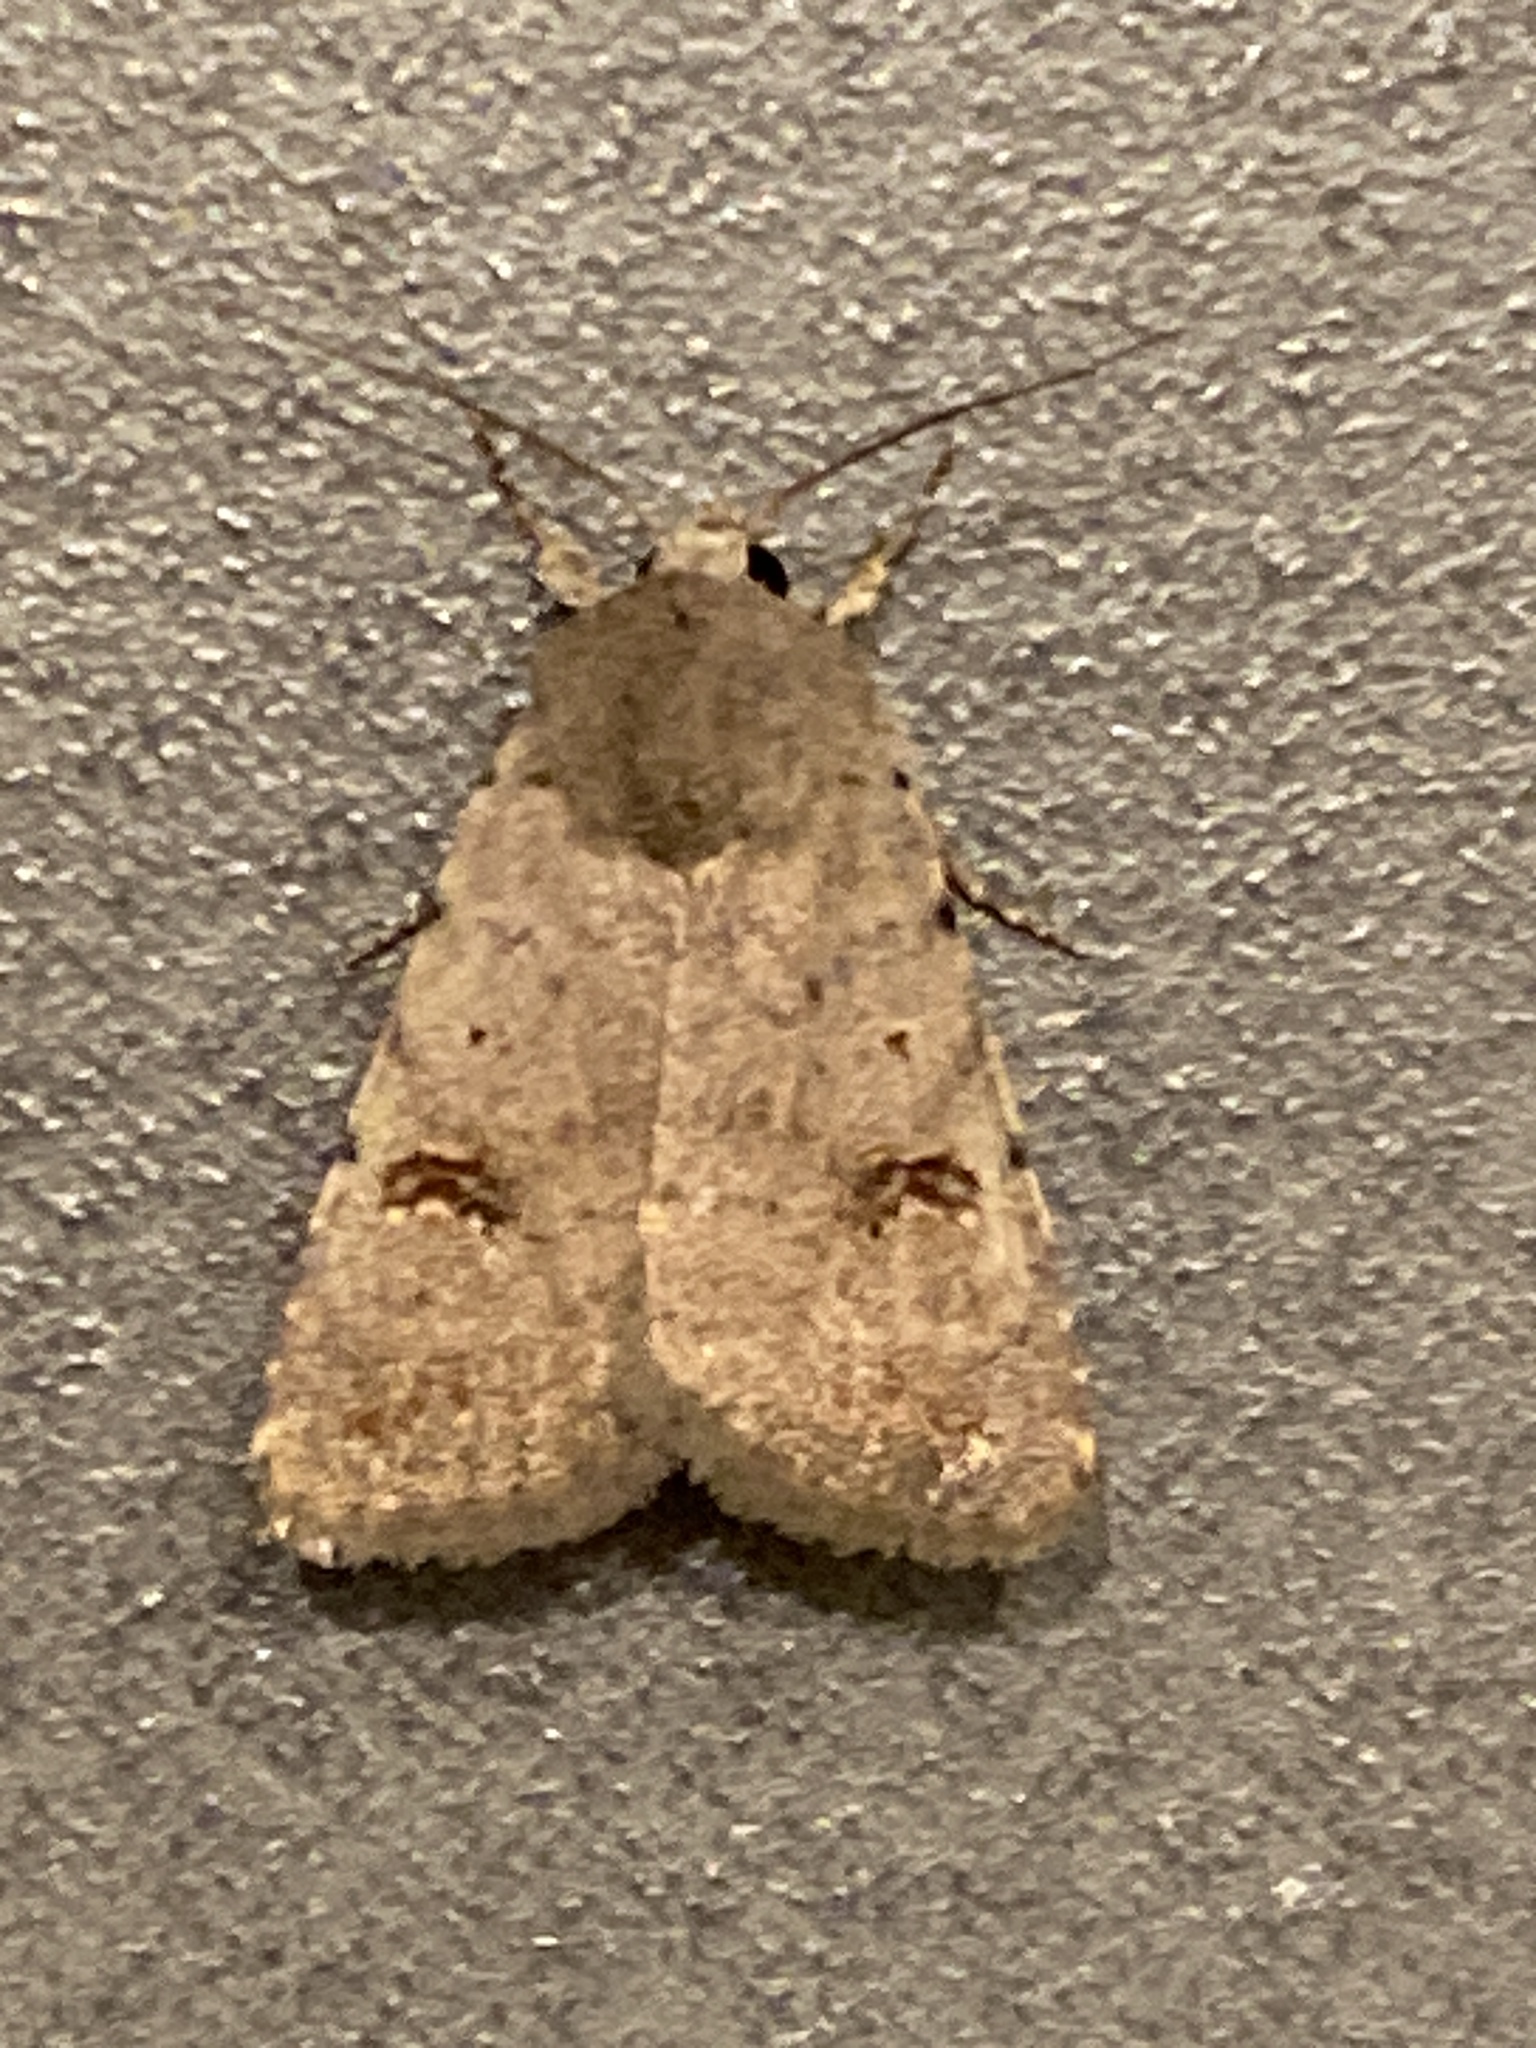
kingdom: Animalia
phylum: Arthropoda
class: Insecta
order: Lepidoptera
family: Noctuidae
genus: Caradrina
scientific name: Caradrina kadenii
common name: Clancy's rustic
